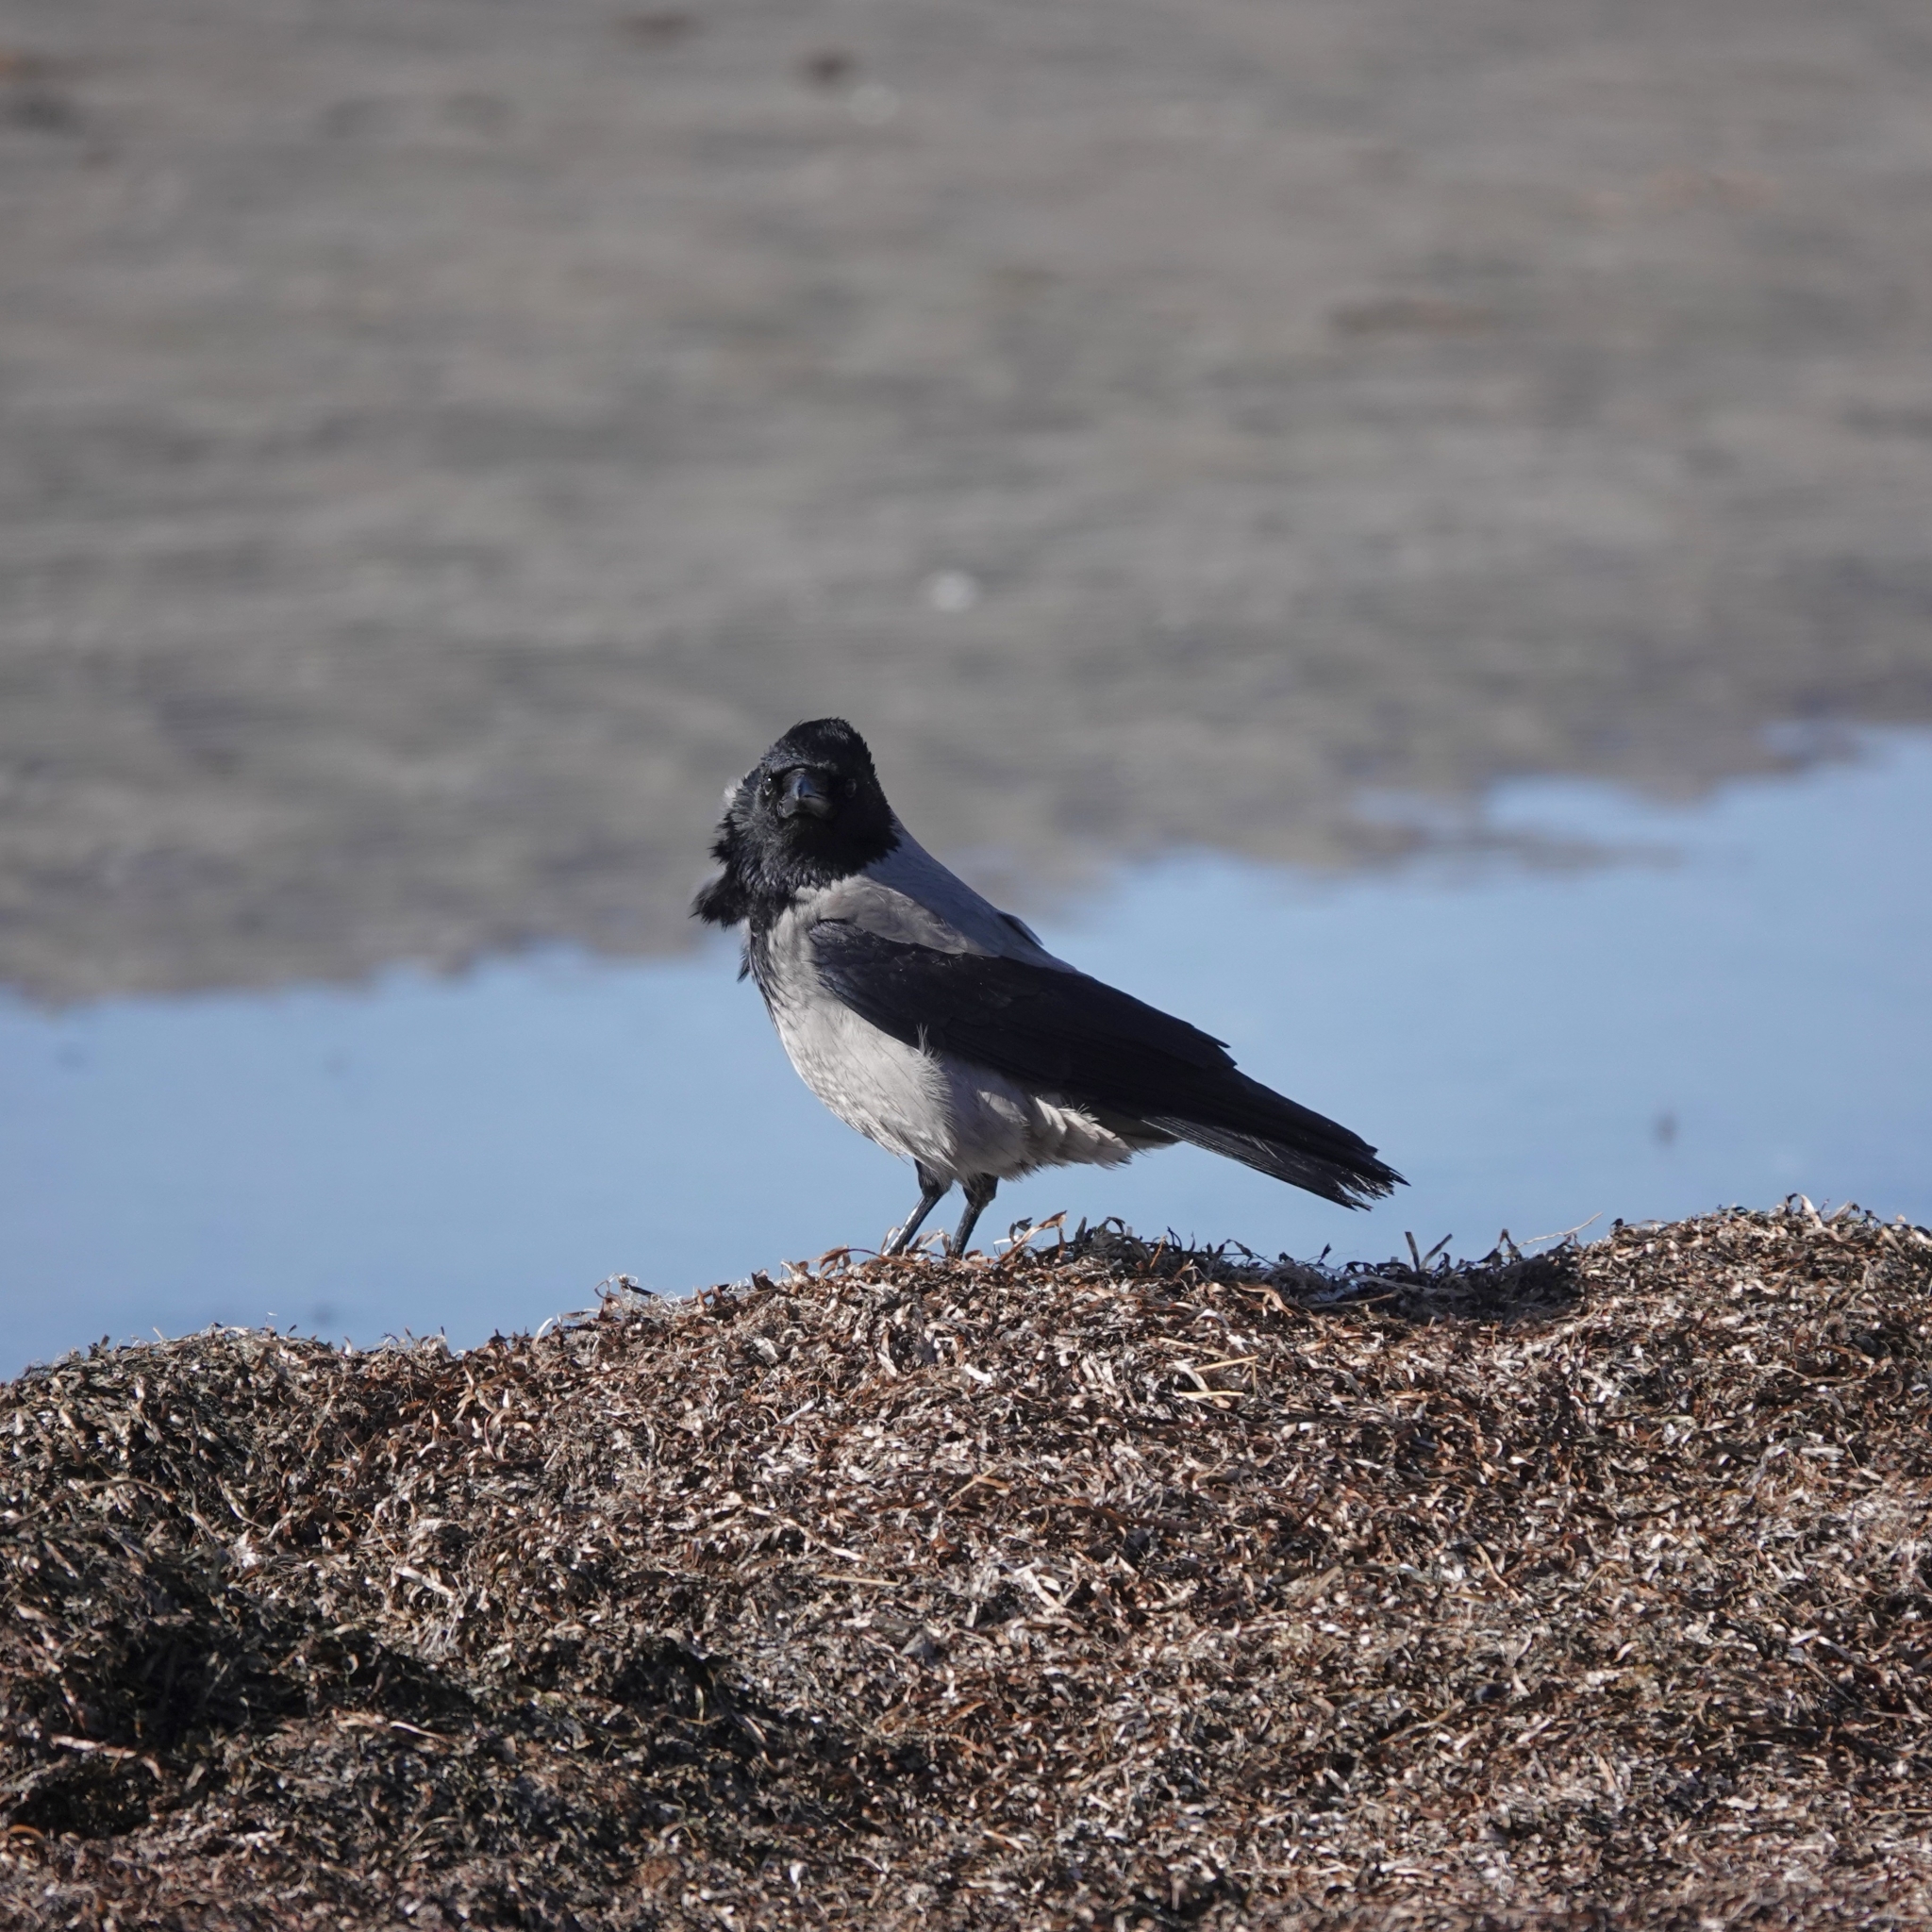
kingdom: Animalia
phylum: Chordata
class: Aves
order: Passeriformes
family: Corvidae
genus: Corvus
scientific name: Corvus cornix
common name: Hooded crow
